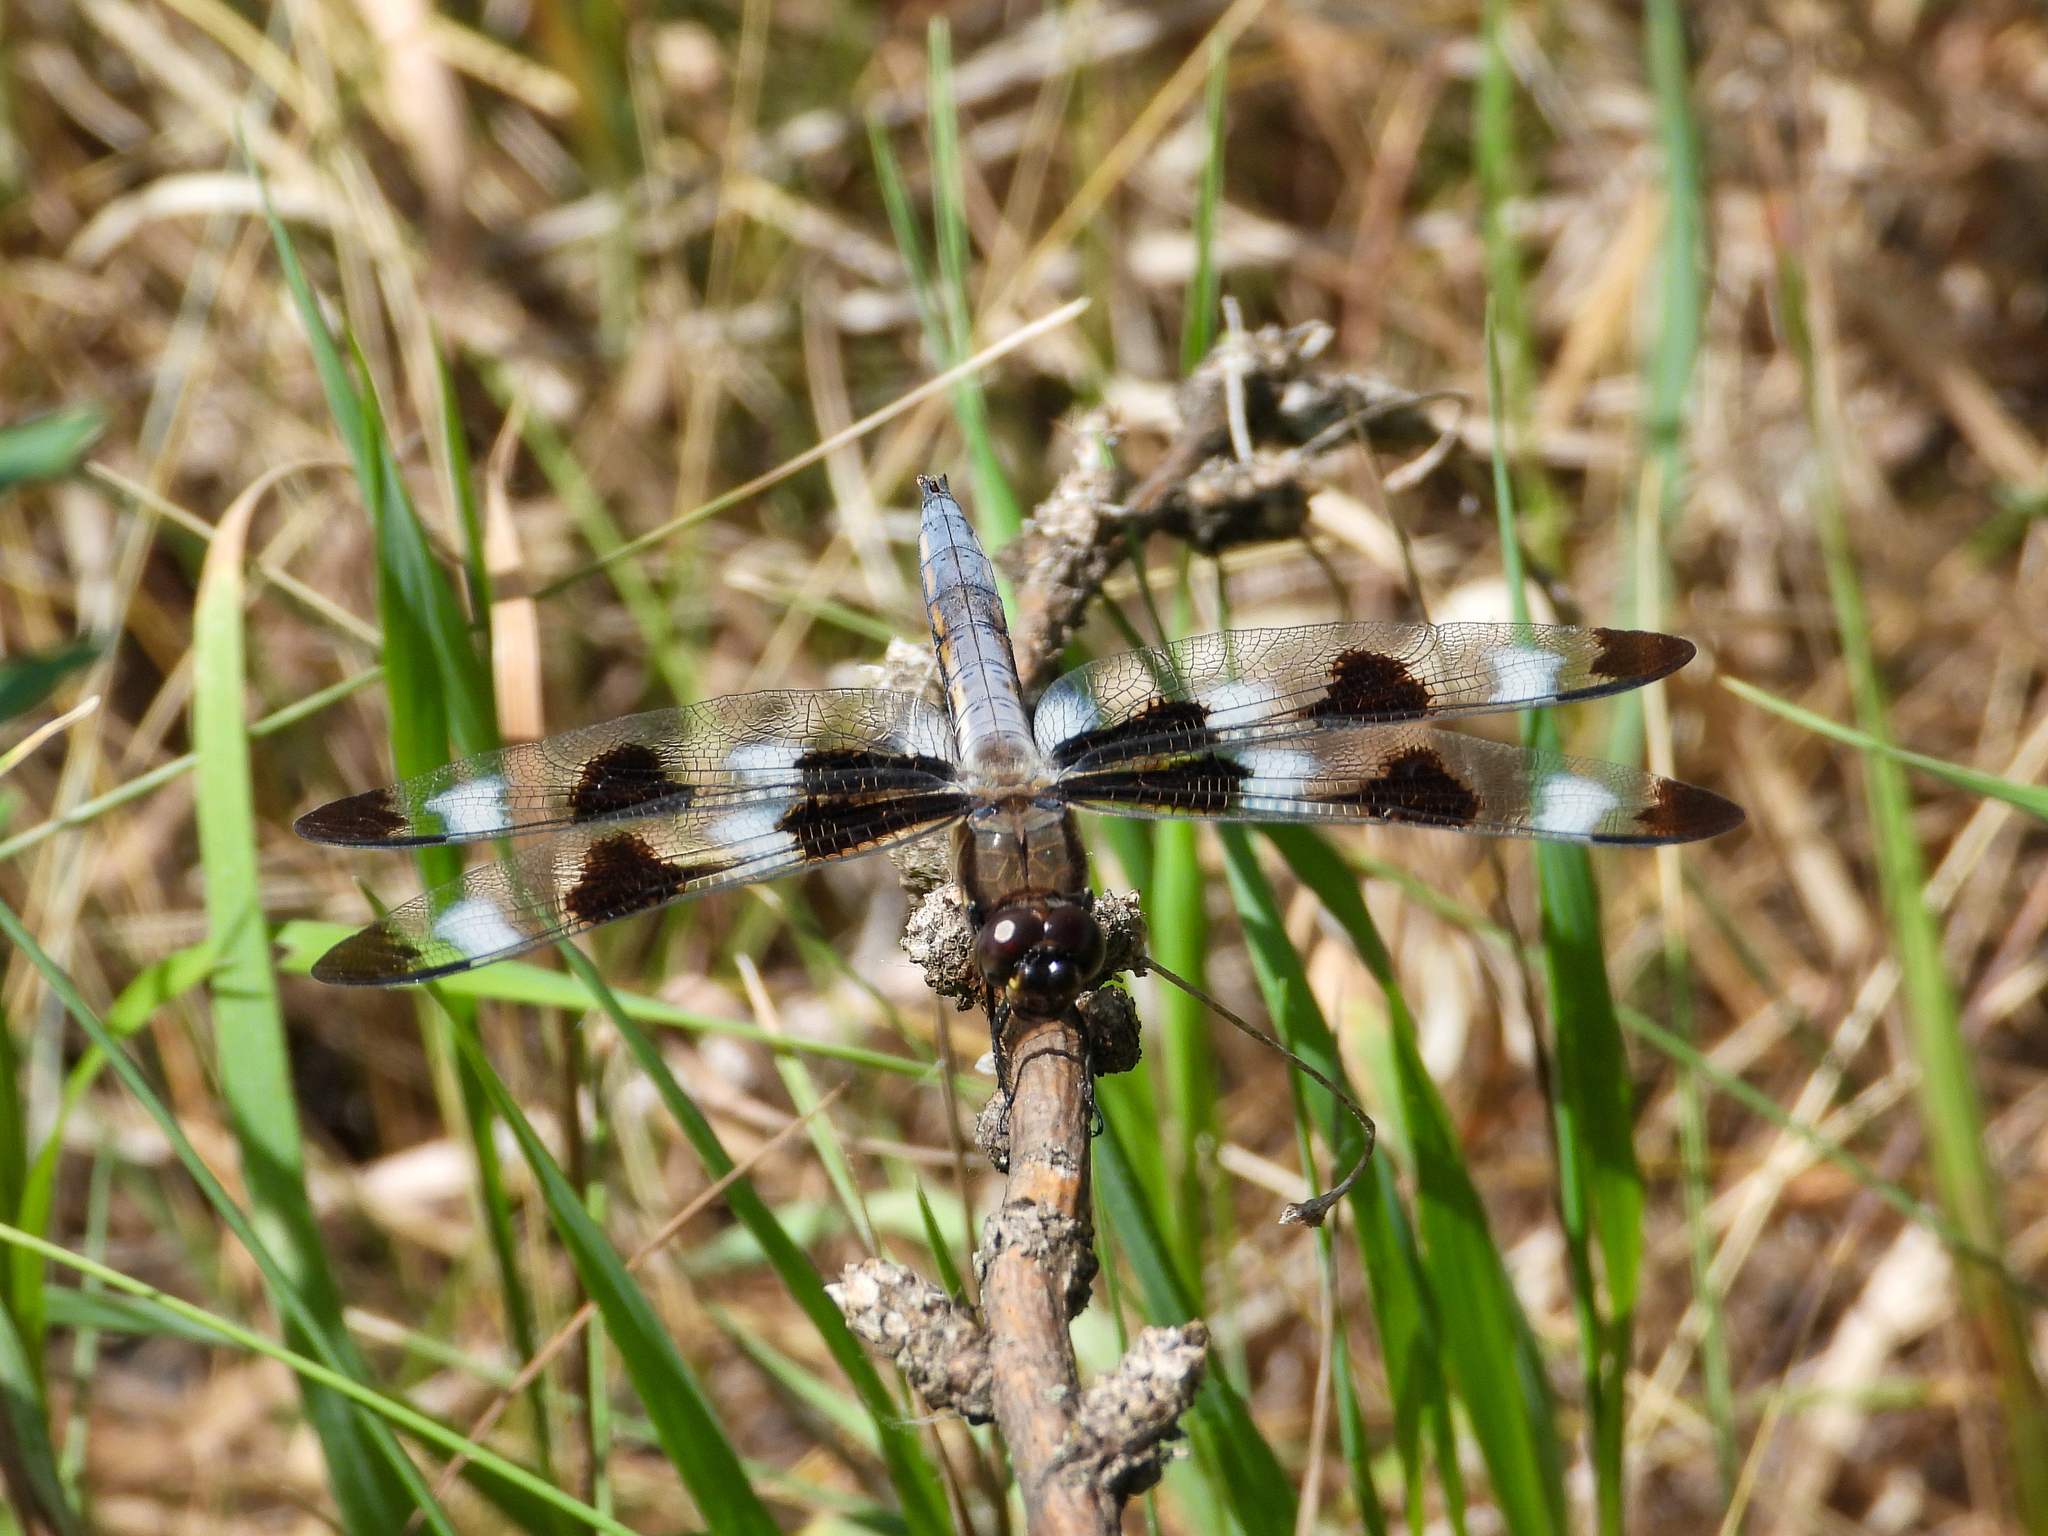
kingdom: Animalia
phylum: Arthropoda
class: Insecta
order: Odonata
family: Libellulidae
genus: Libellula
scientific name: Libellula pulchella
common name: Twelve-spotted skimmer
